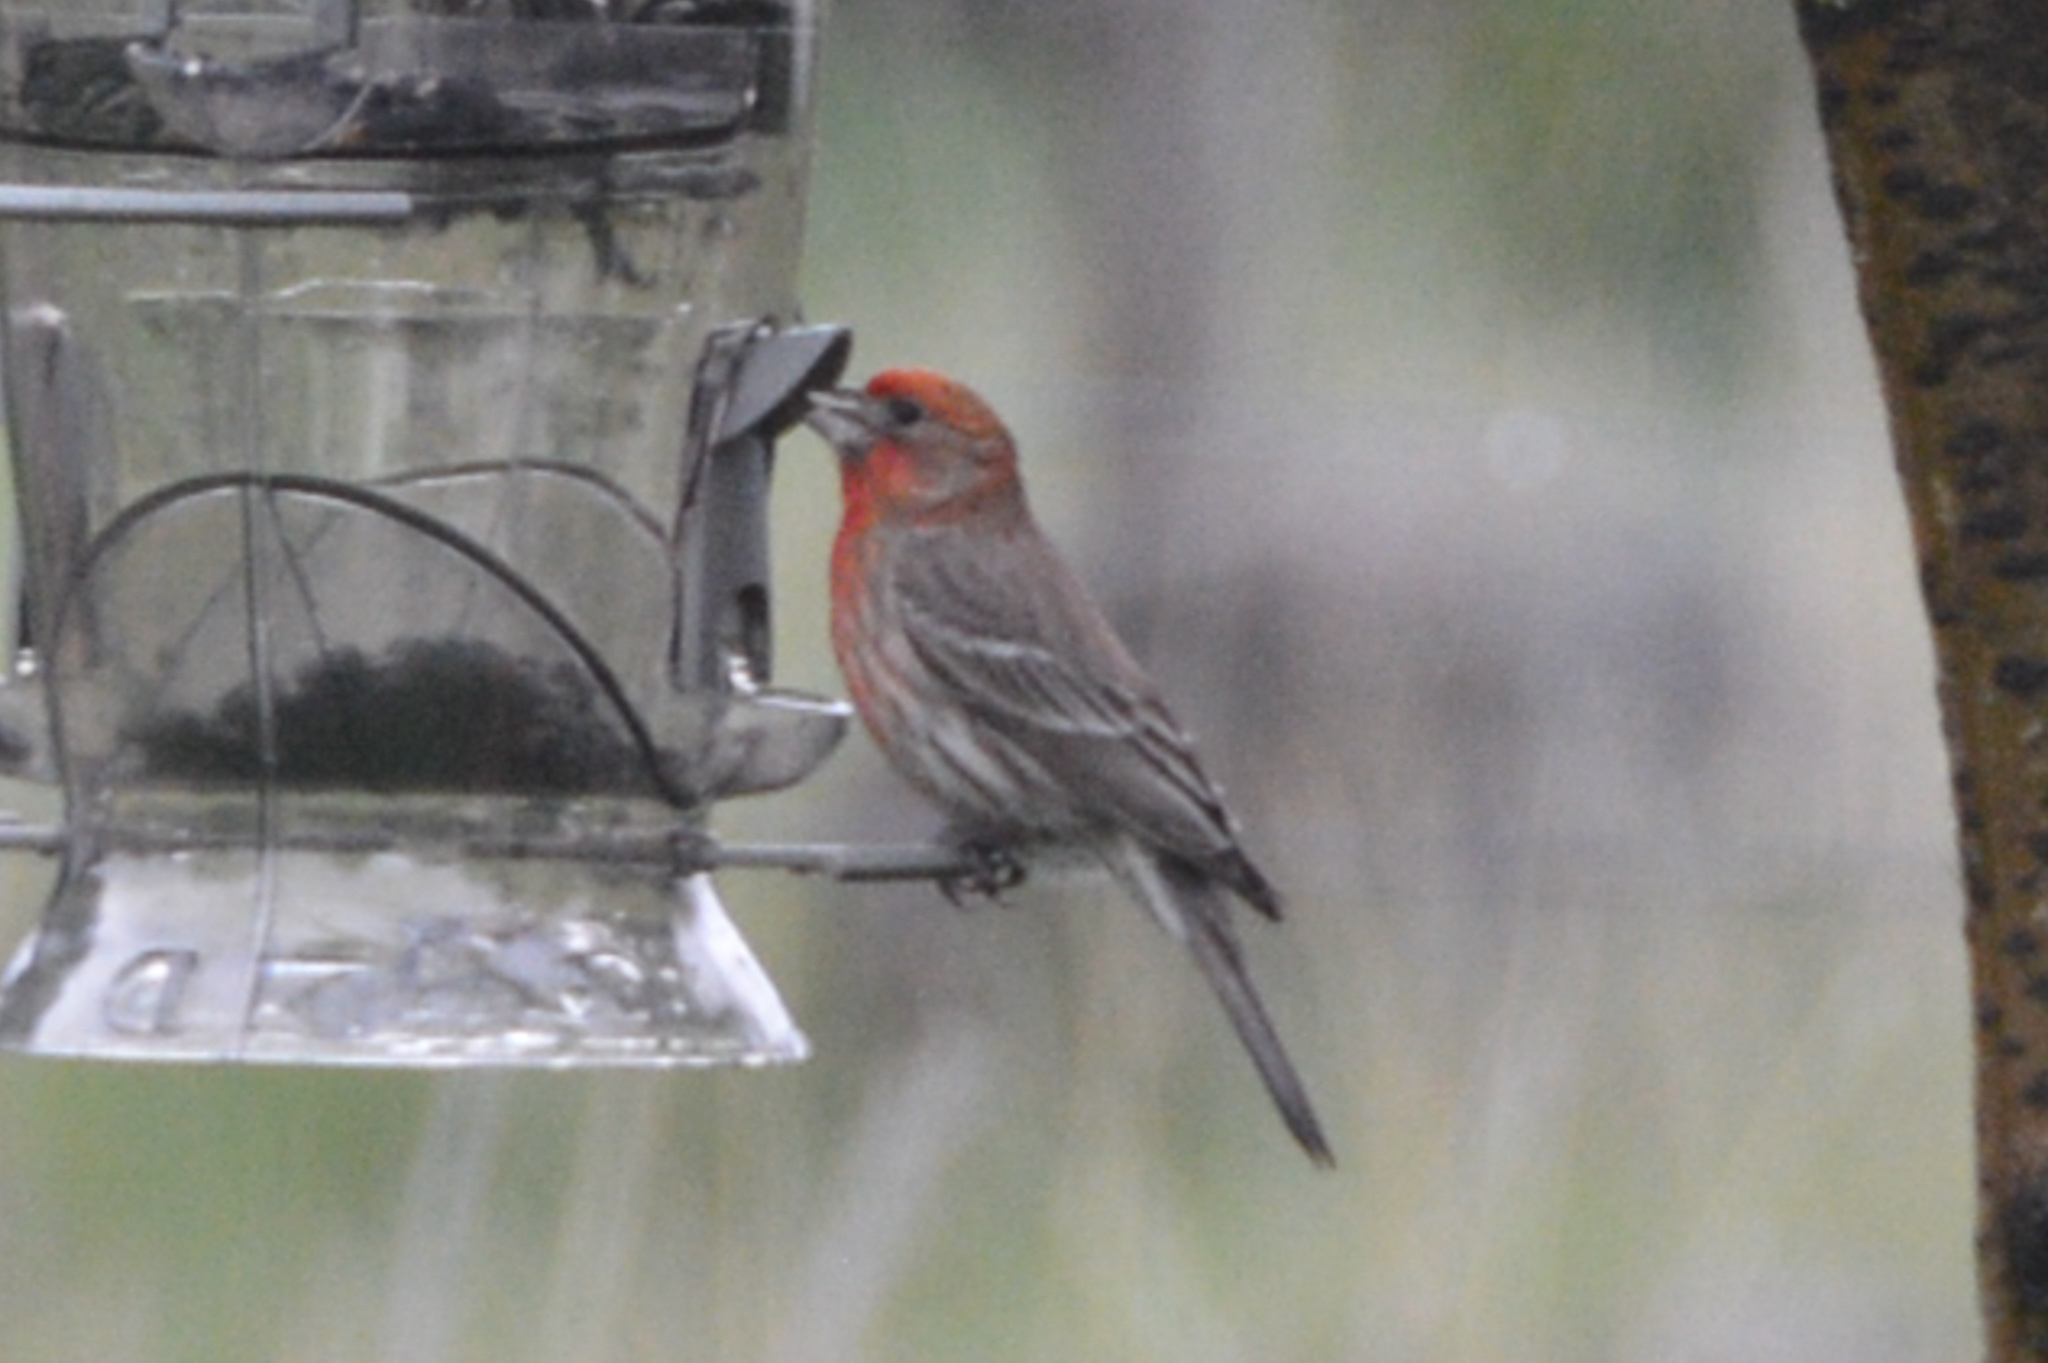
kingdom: Animalia
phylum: Chordata
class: Aves
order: Passeriformes
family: Fringillidae
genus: Haemorhous
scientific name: Haemorhous mexicanus
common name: House finch
